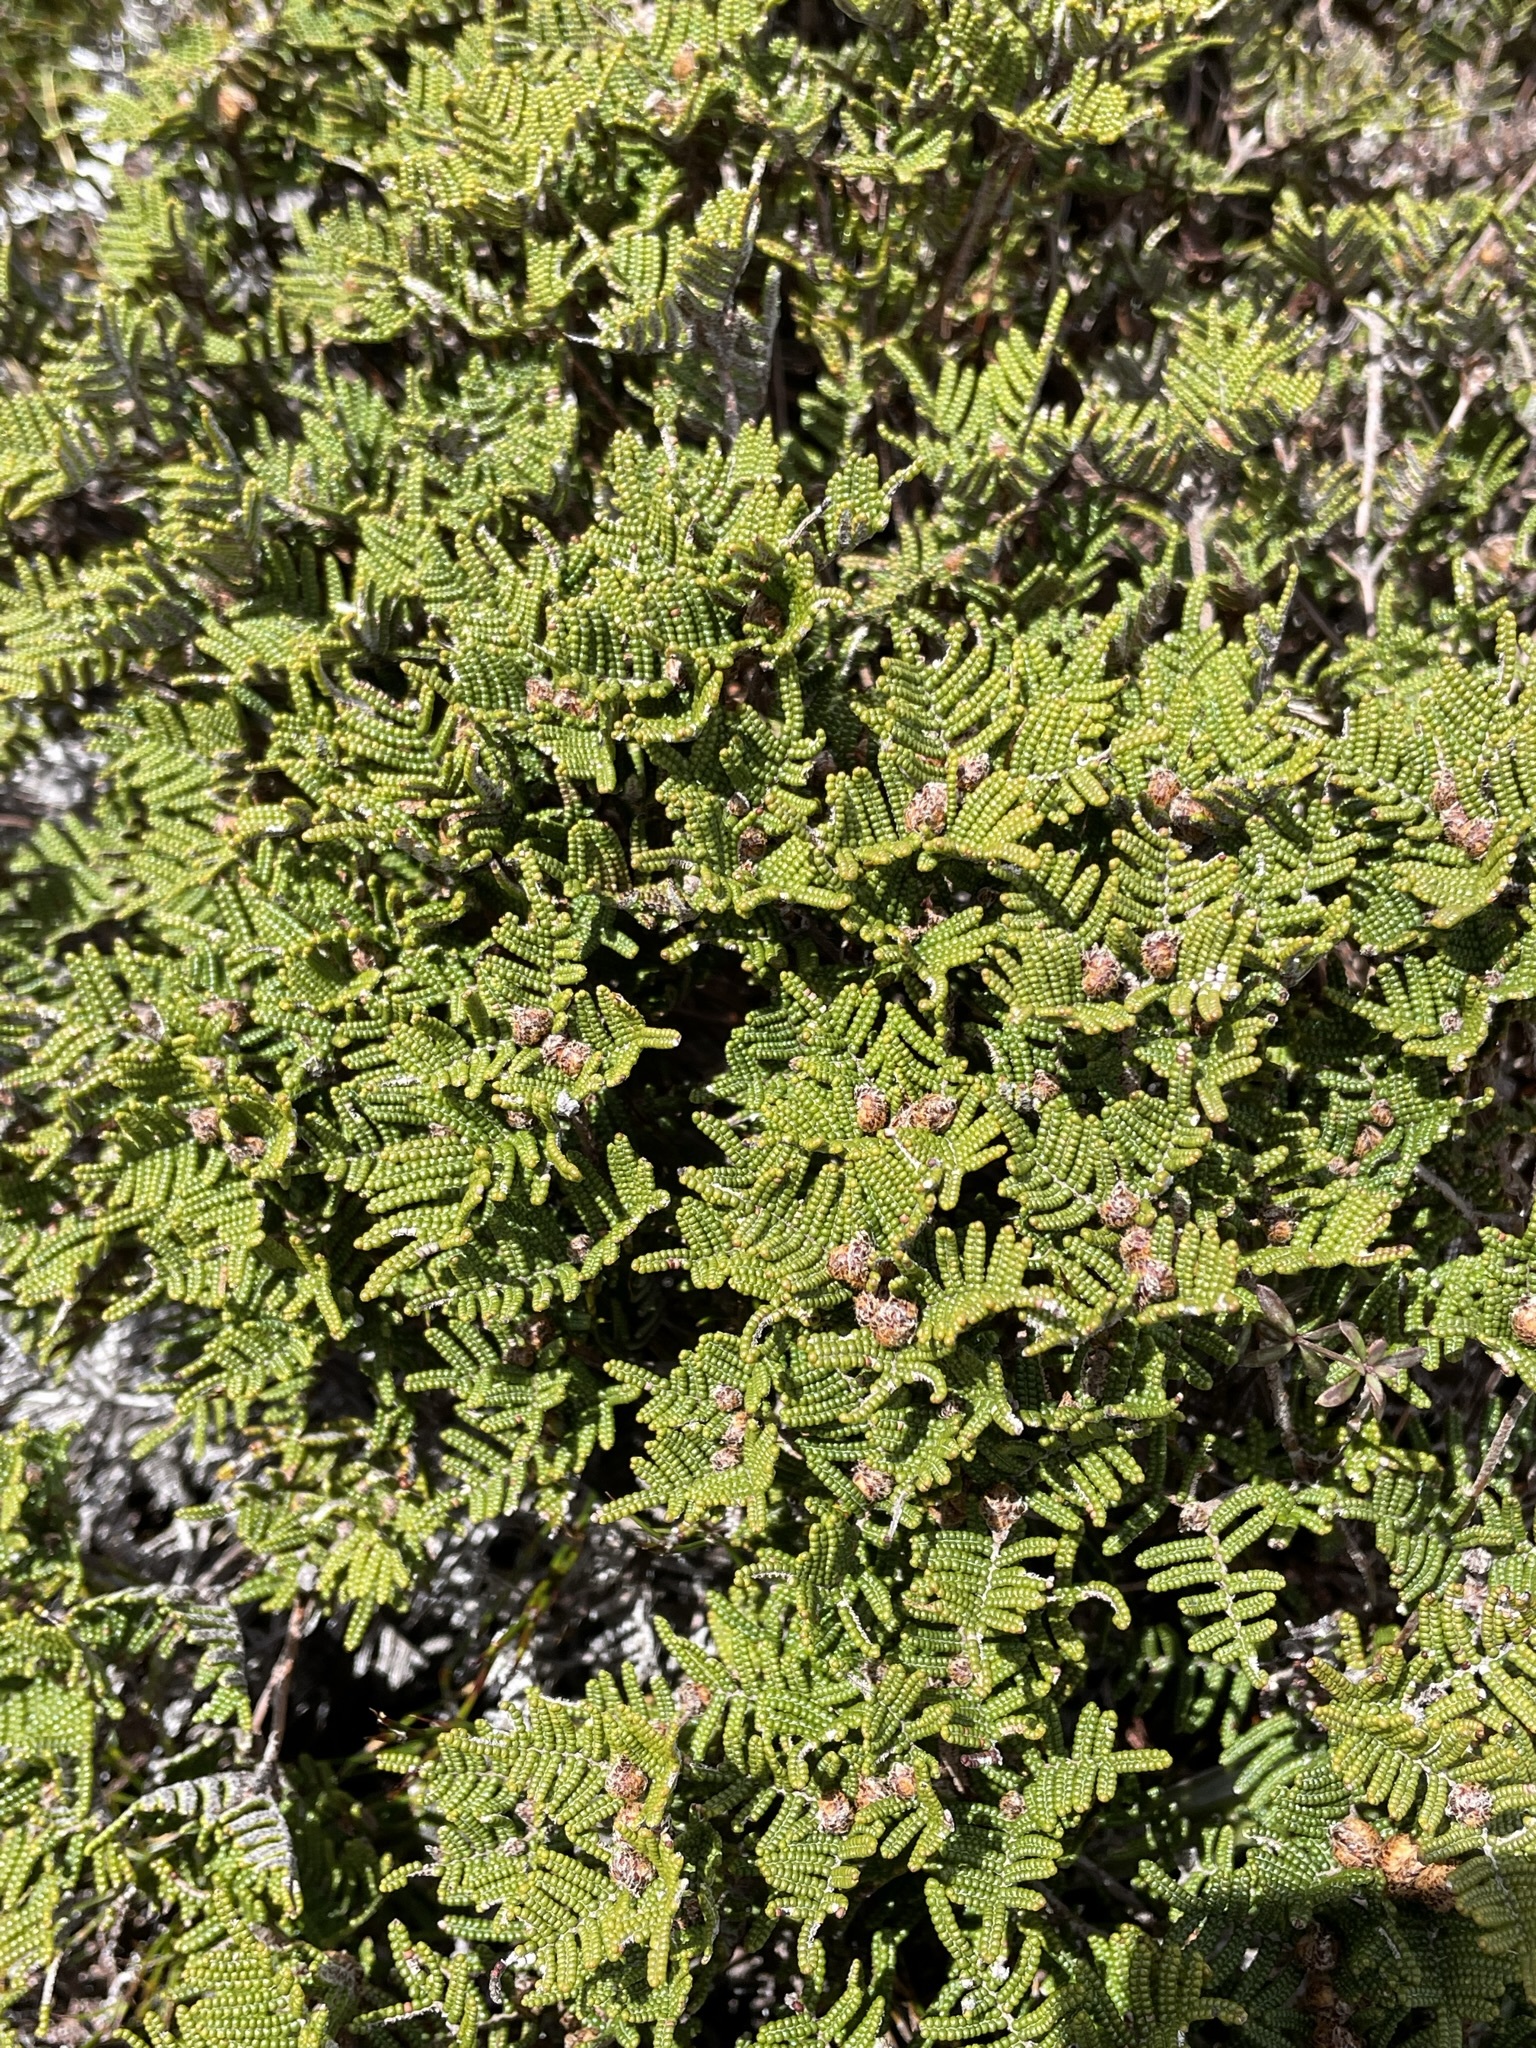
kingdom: Plantae
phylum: Tracheophyta
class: Polypodiopsida
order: Gleicheniales
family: Gleicheniaceae
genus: Gleichenia
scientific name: Gleichenia alpina
